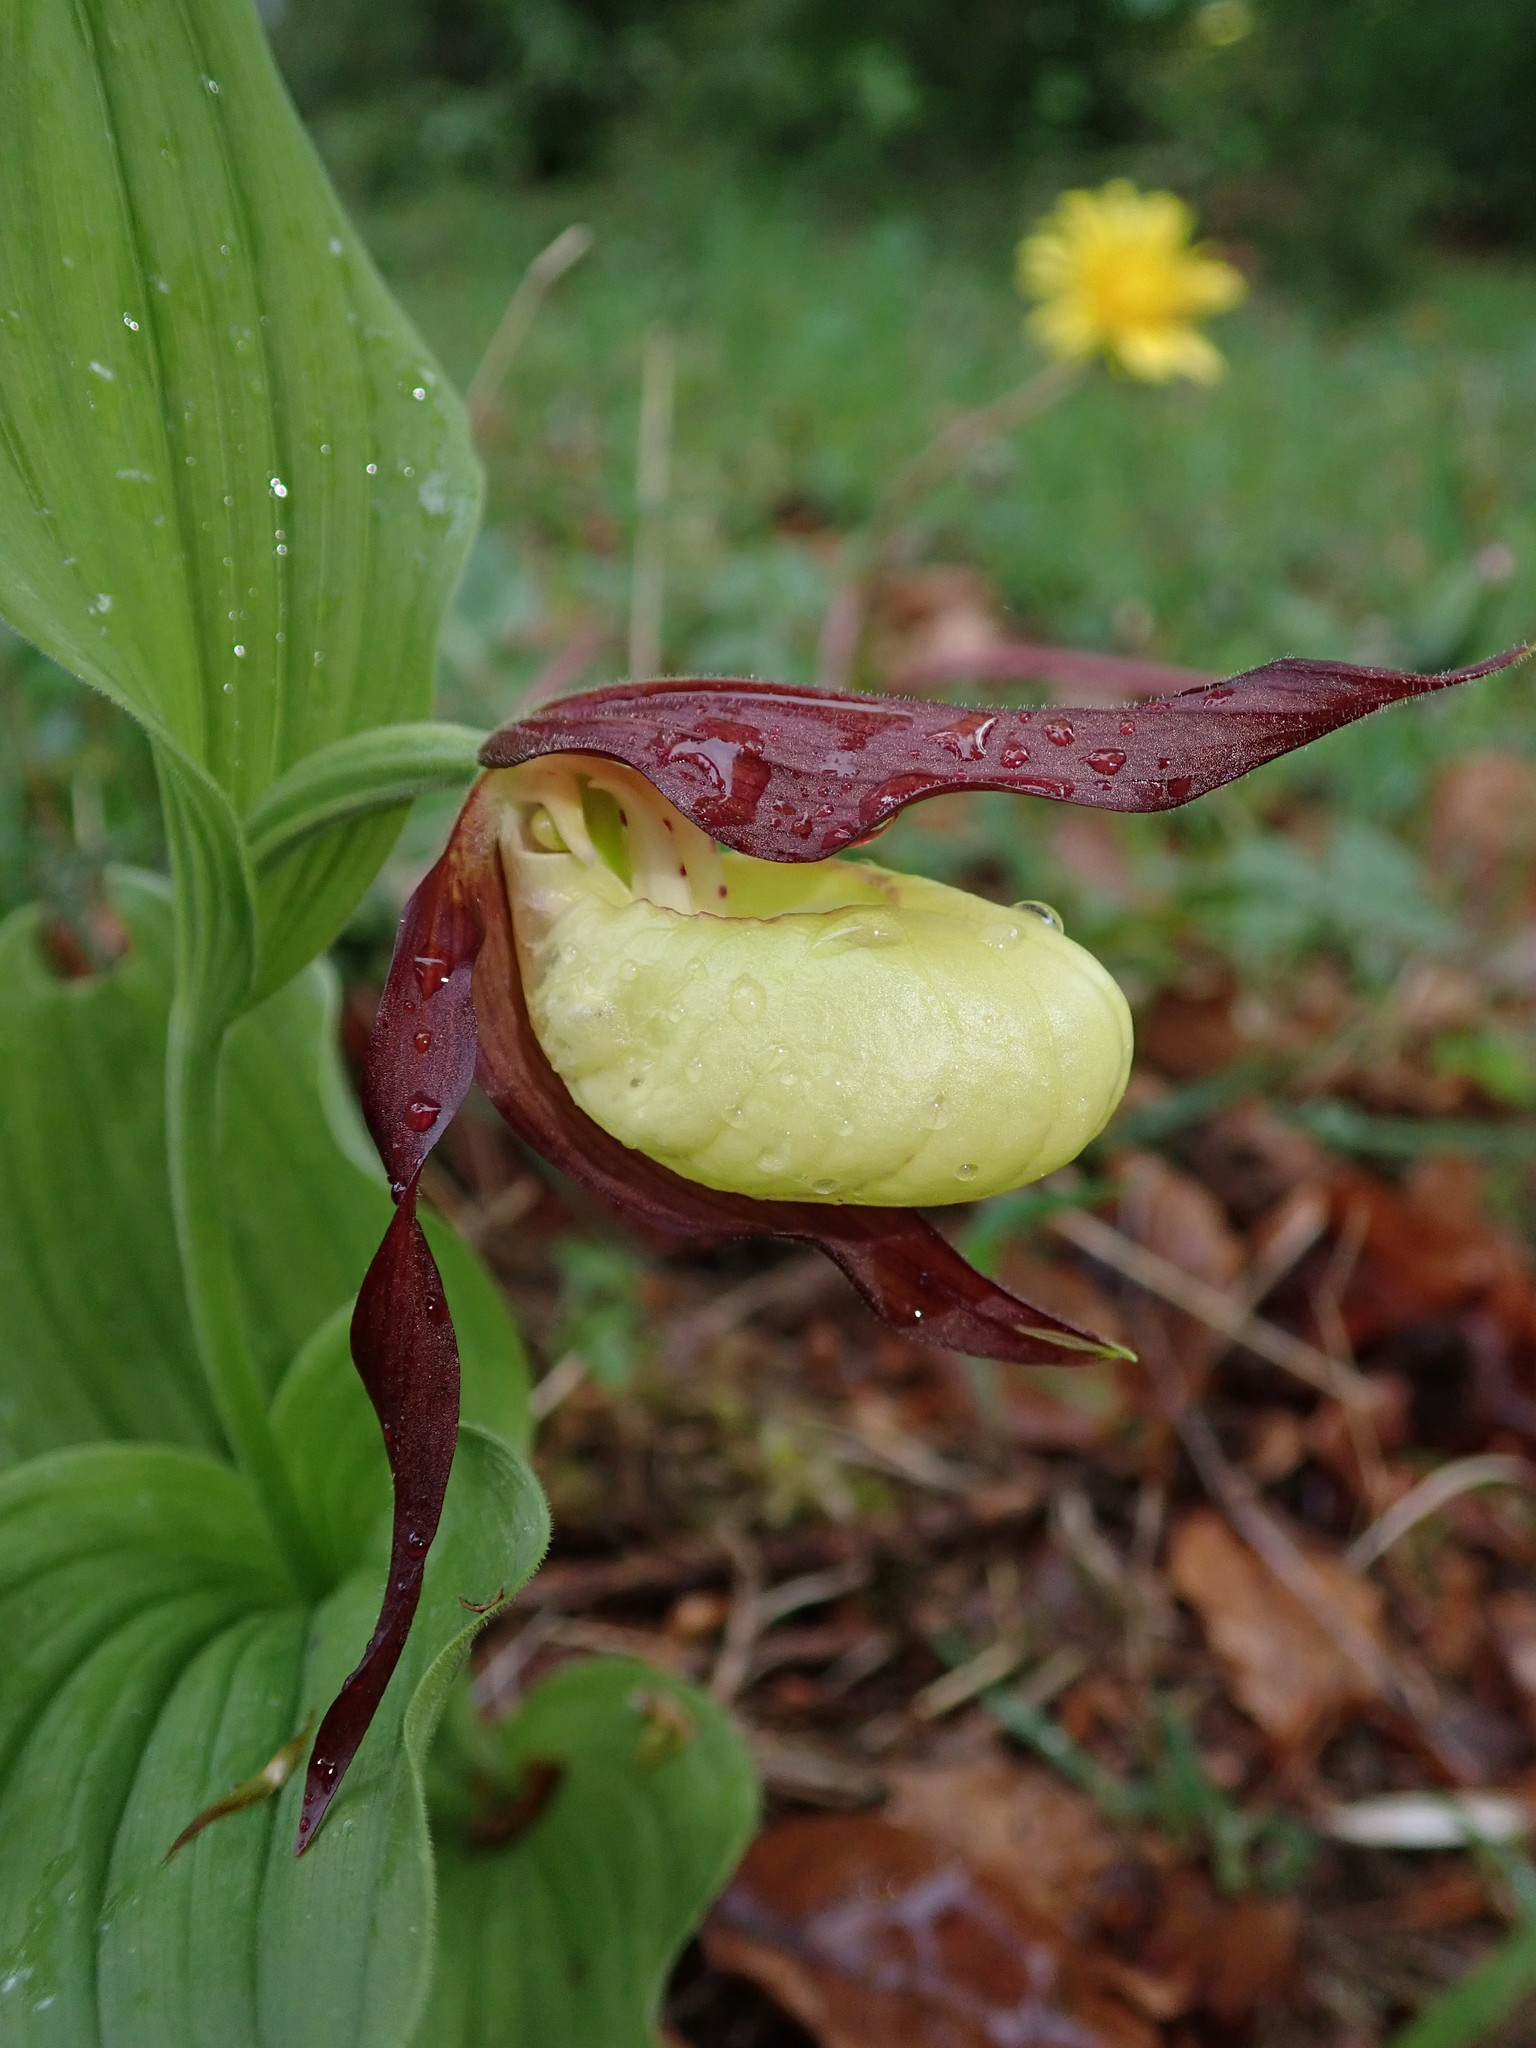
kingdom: Plantae
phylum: Tracheophyta
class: Liliopsida
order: Asparagales
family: Orchidaceae
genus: Cypripedium
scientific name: Cypripedium calceolus
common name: Lady's-slipper
